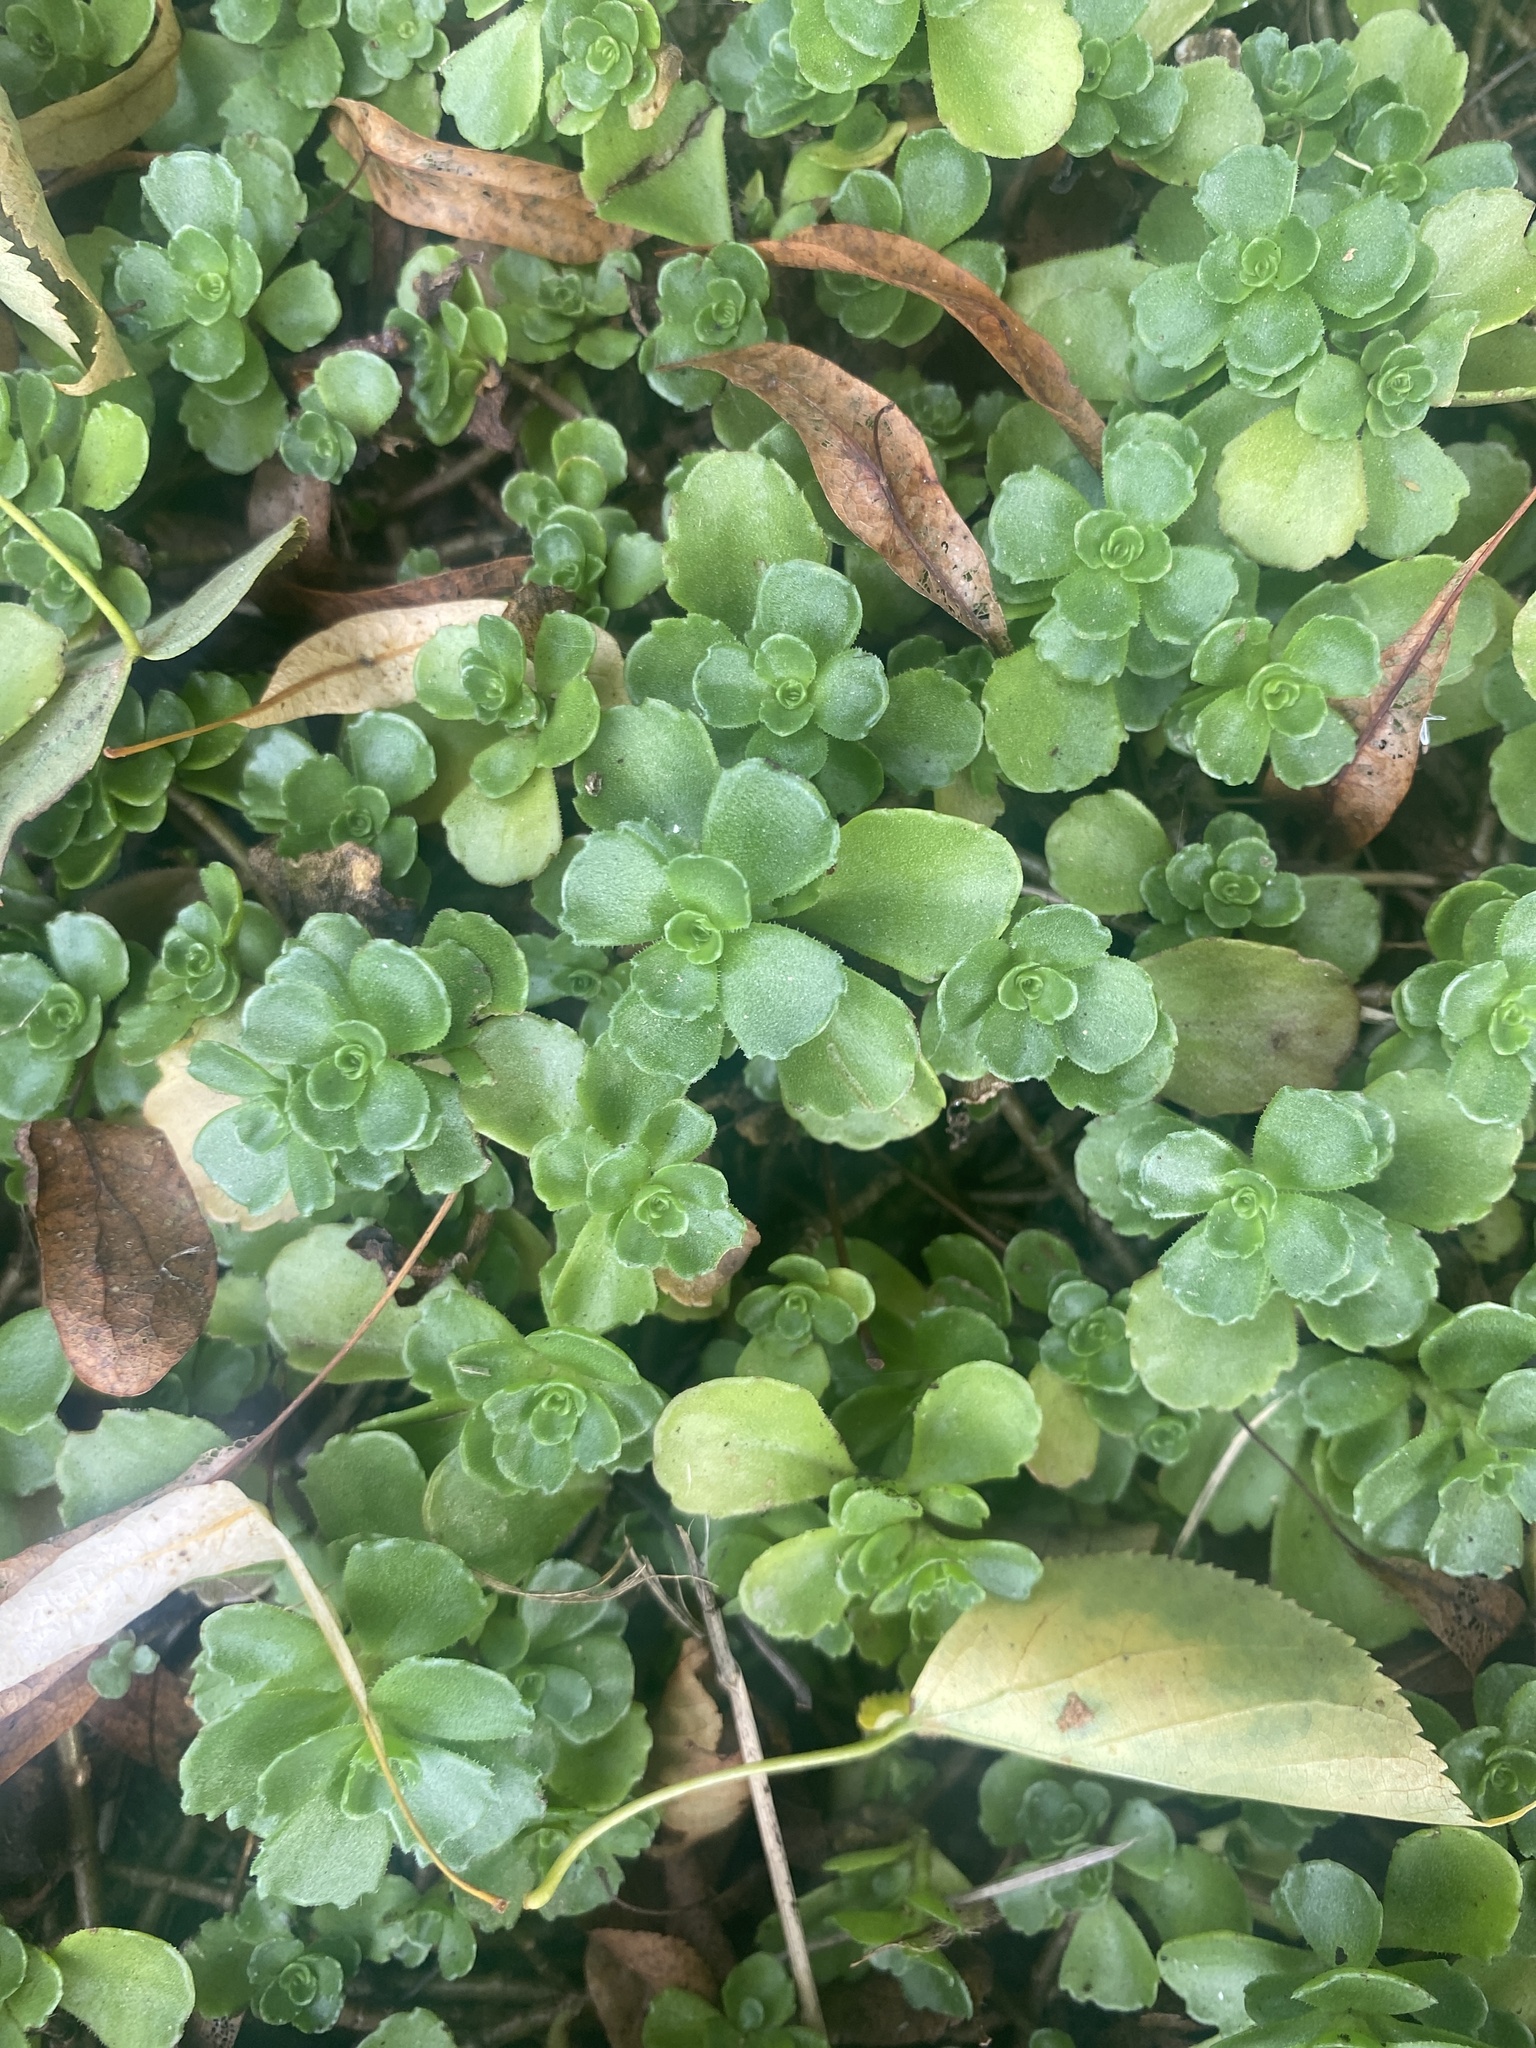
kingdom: Plantae
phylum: Tracheophyta
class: Magnoliopsida
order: Saxifragales
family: Crassulaceae
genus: Phedimus
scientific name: Phedimus spurius
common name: Caucasian stonecrop
